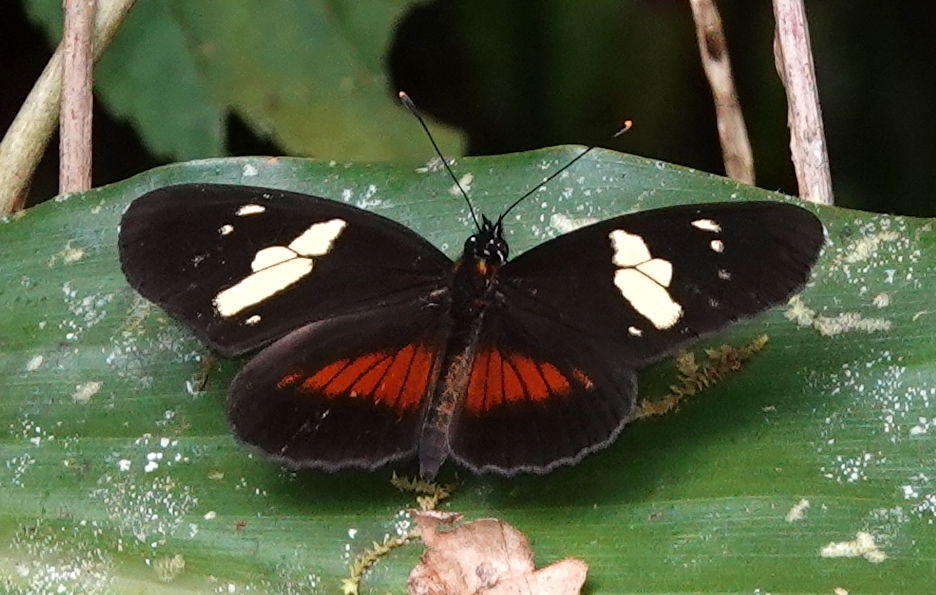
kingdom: Animalia
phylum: Arthropoda
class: Insecta
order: Lepidoptera
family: Nymphalidae
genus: Eresia
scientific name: Eresia datis
